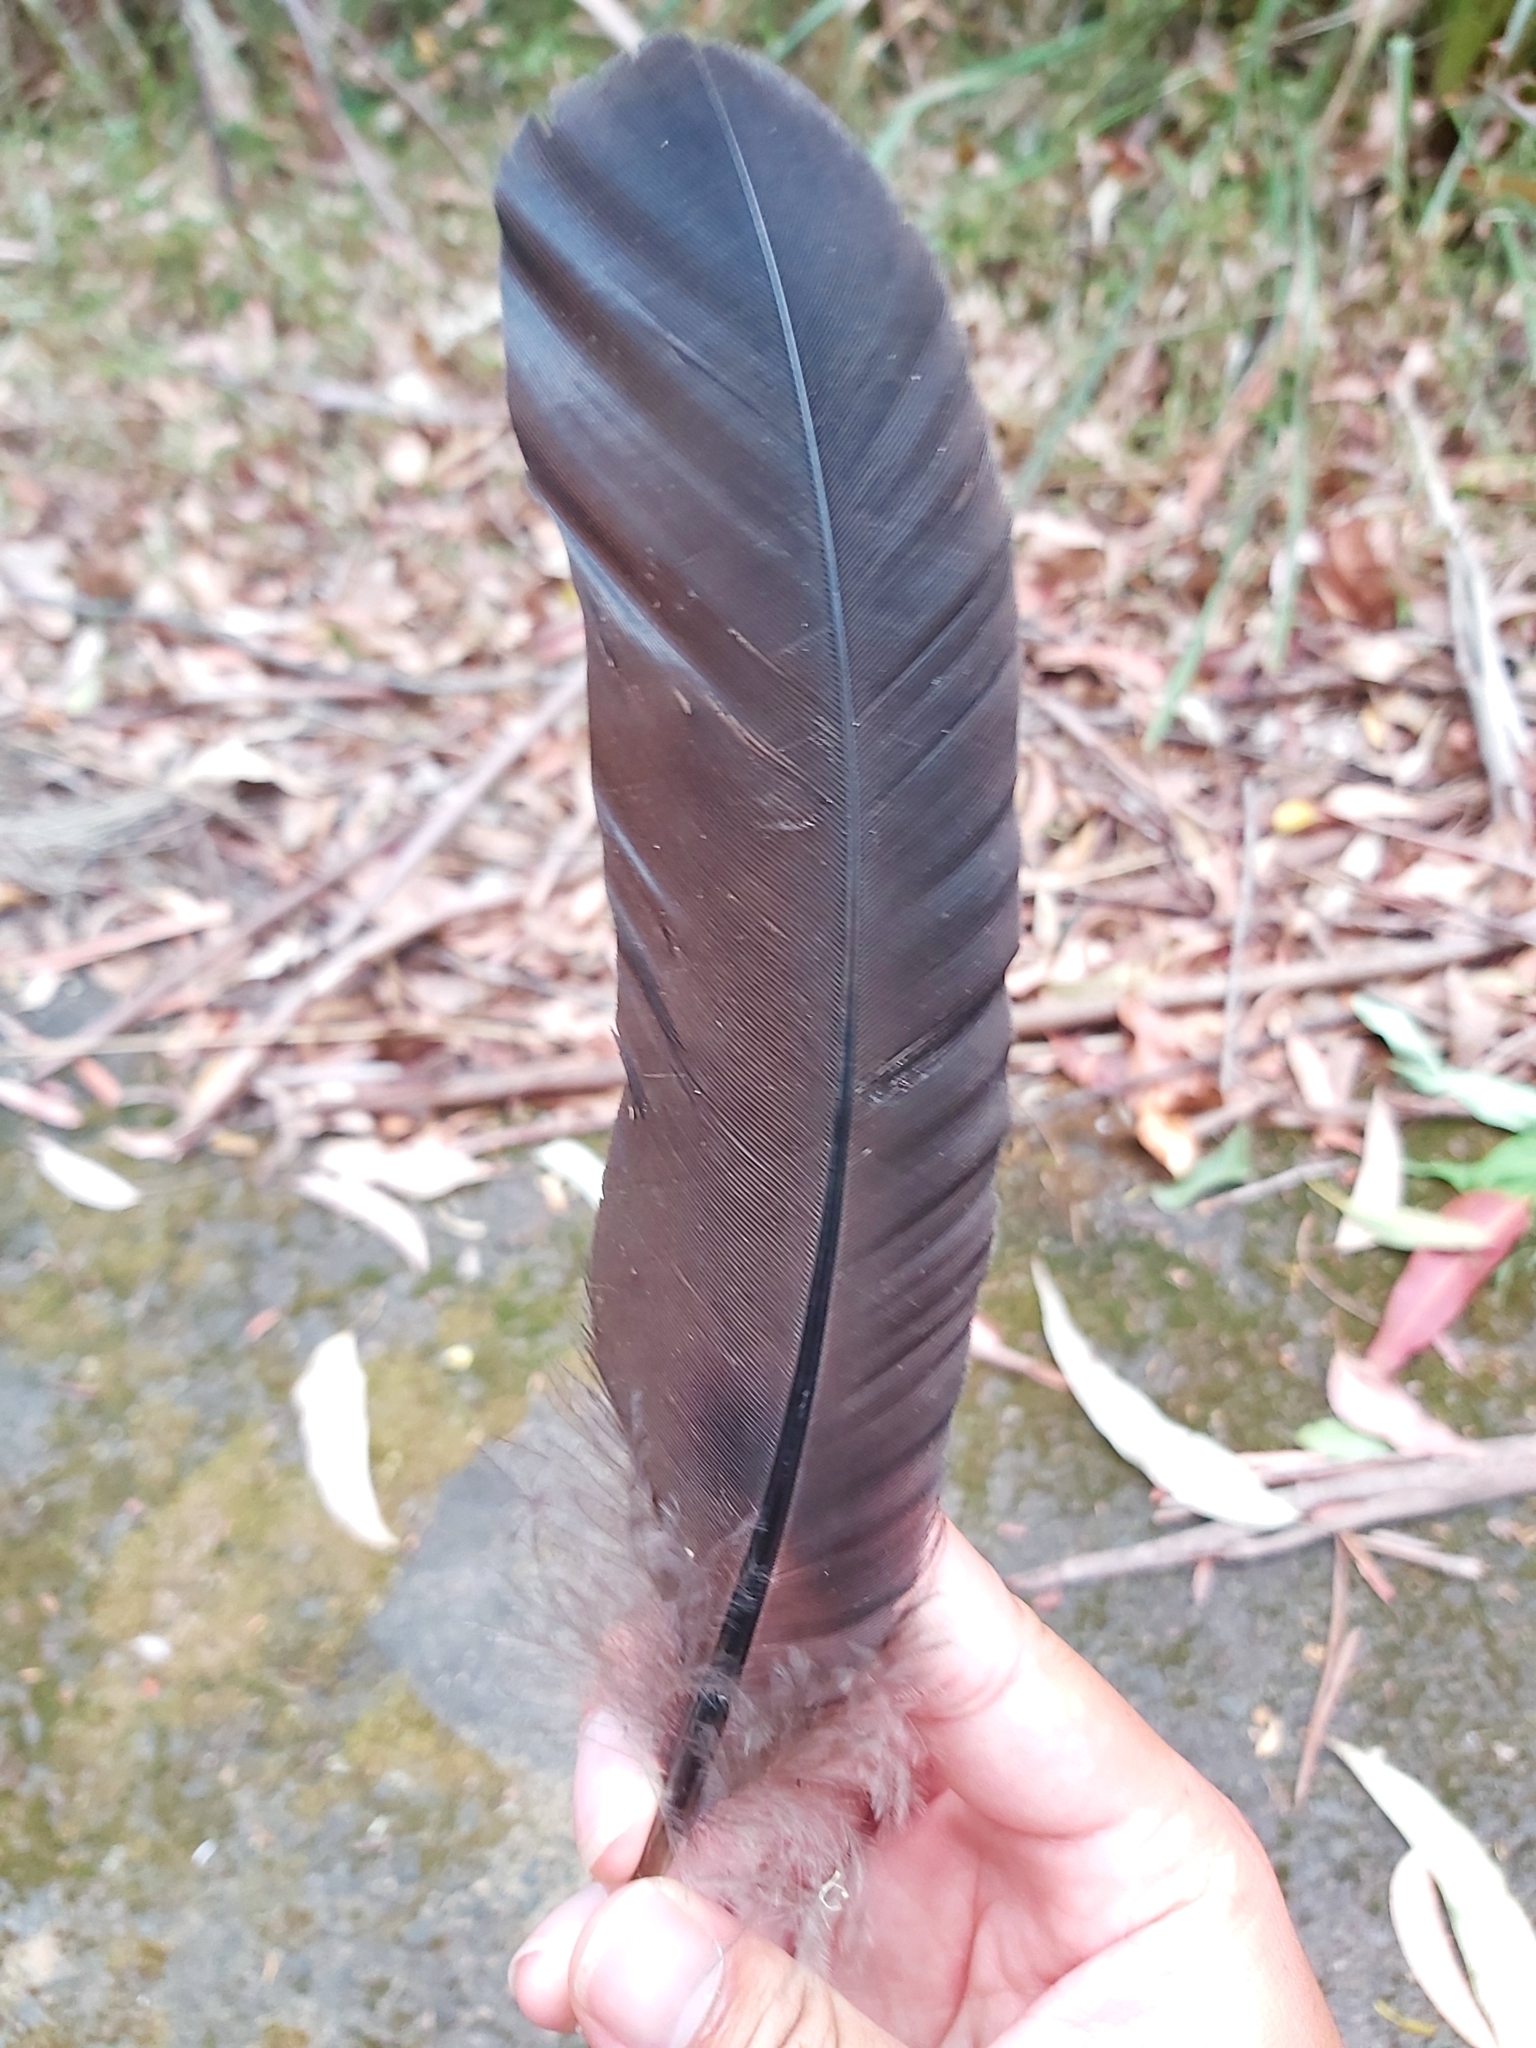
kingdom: Animalia
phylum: Chordata
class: Aves
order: Galliformes
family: Megapodiidae
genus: Alectura
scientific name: Alectura lathami
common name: Australian brushturkey
